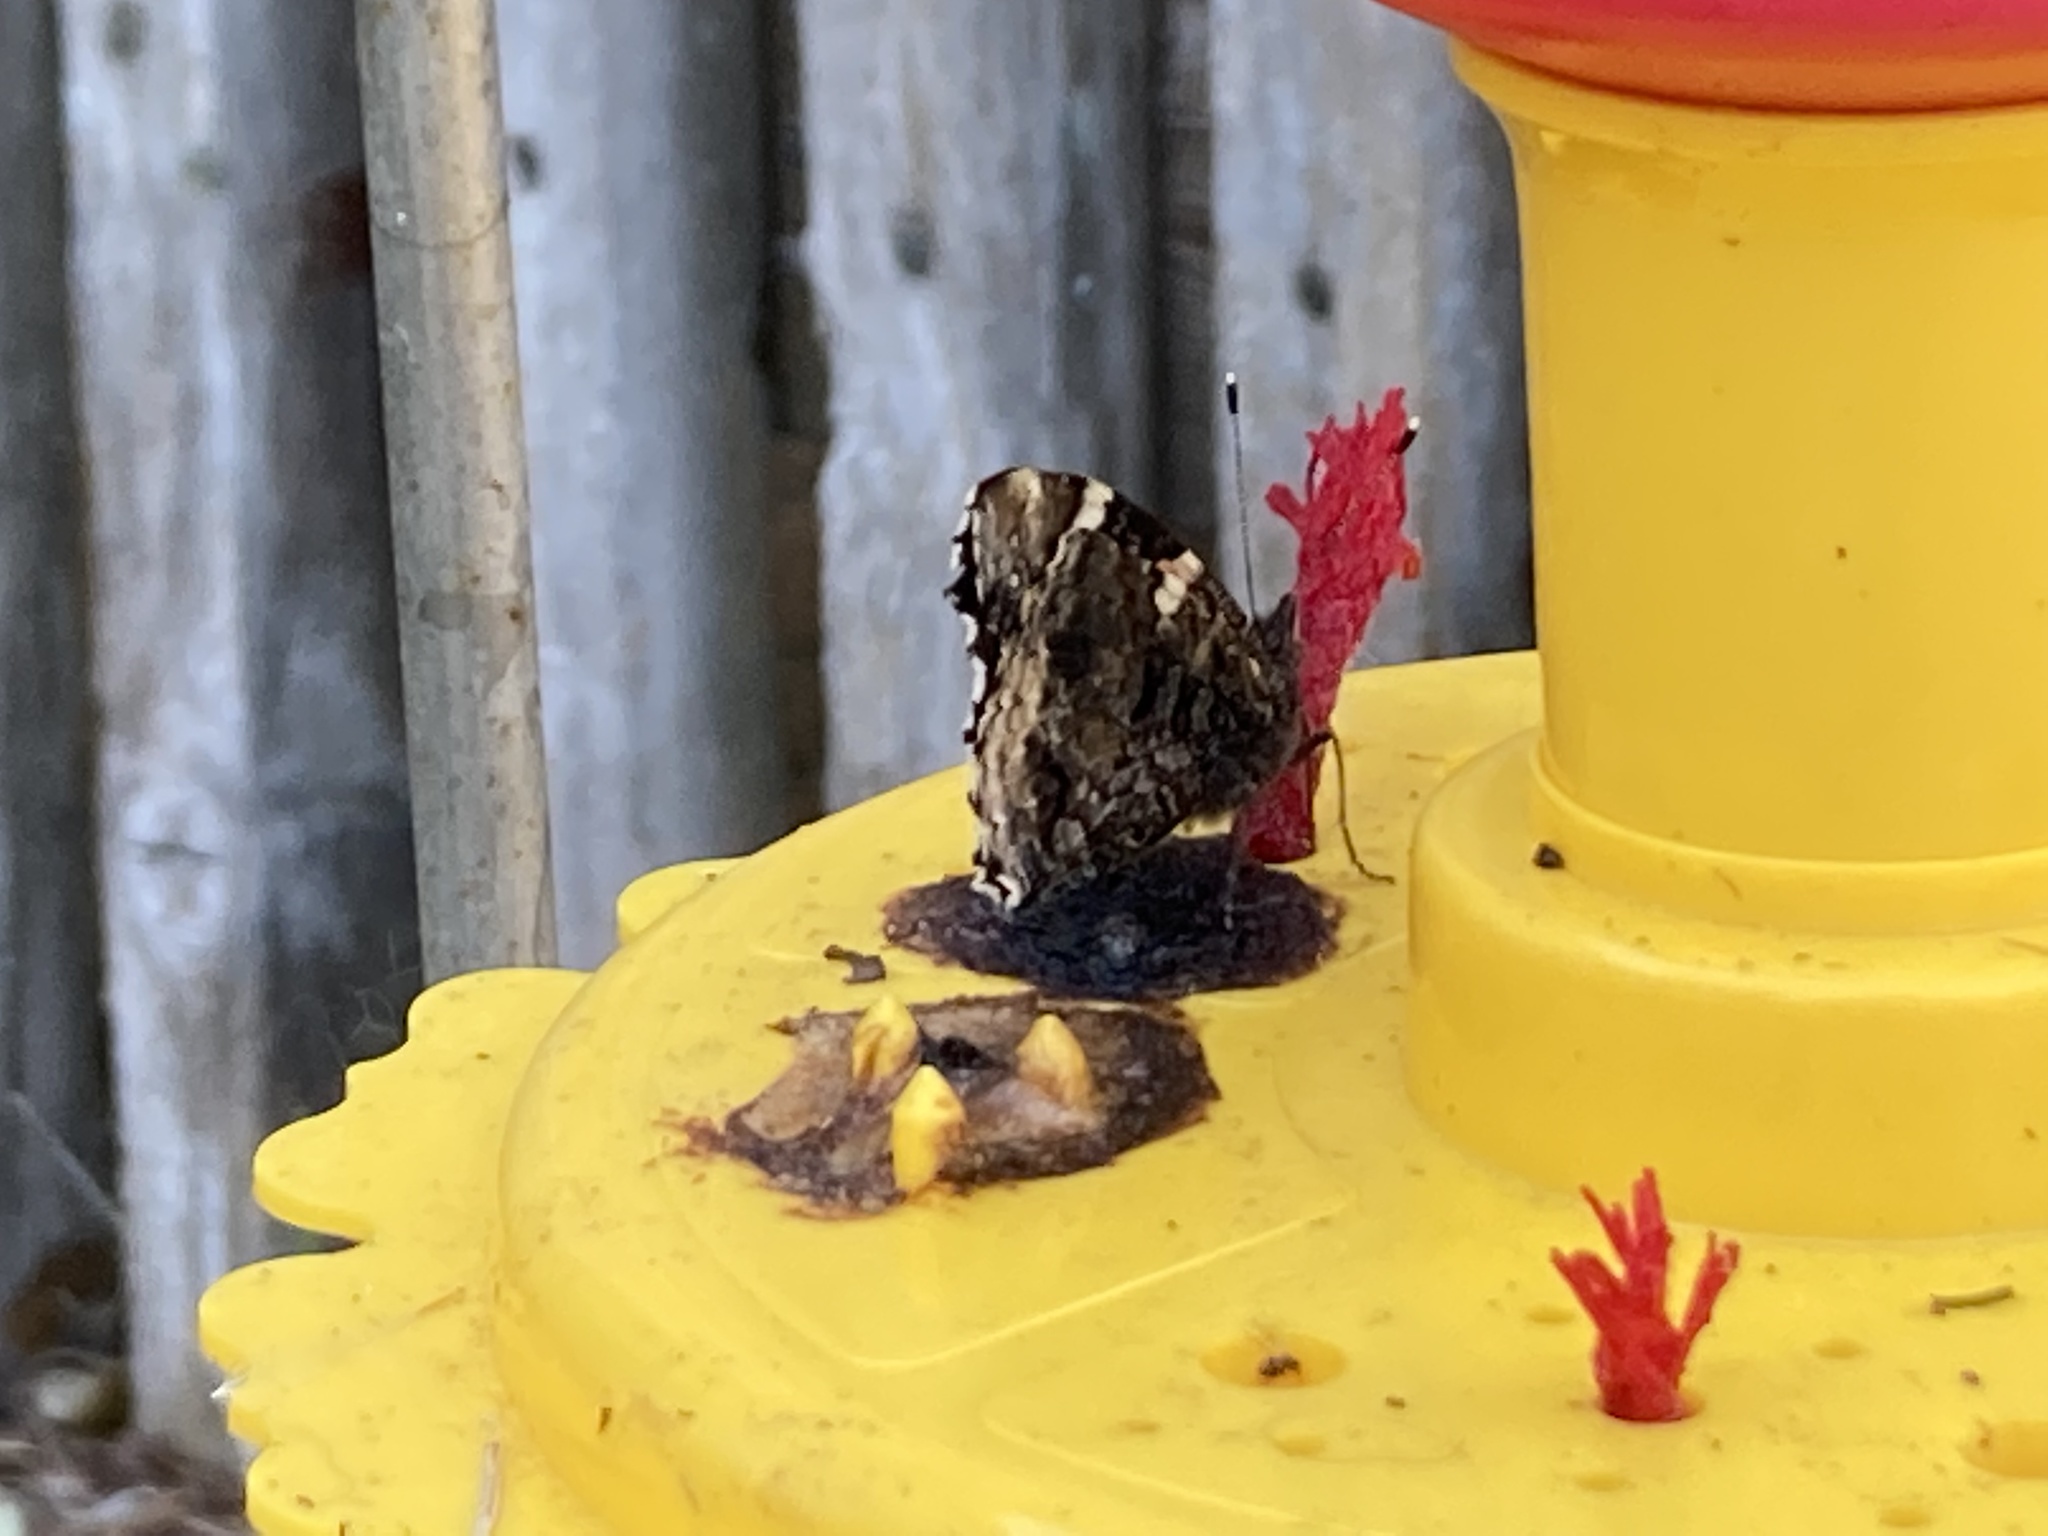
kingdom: Animalia
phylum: Arthropoda
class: Insecta
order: Lepidoptera
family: Nymphalidae
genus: Vanessa
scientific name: Vanessa atalanta
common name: Red admiral
